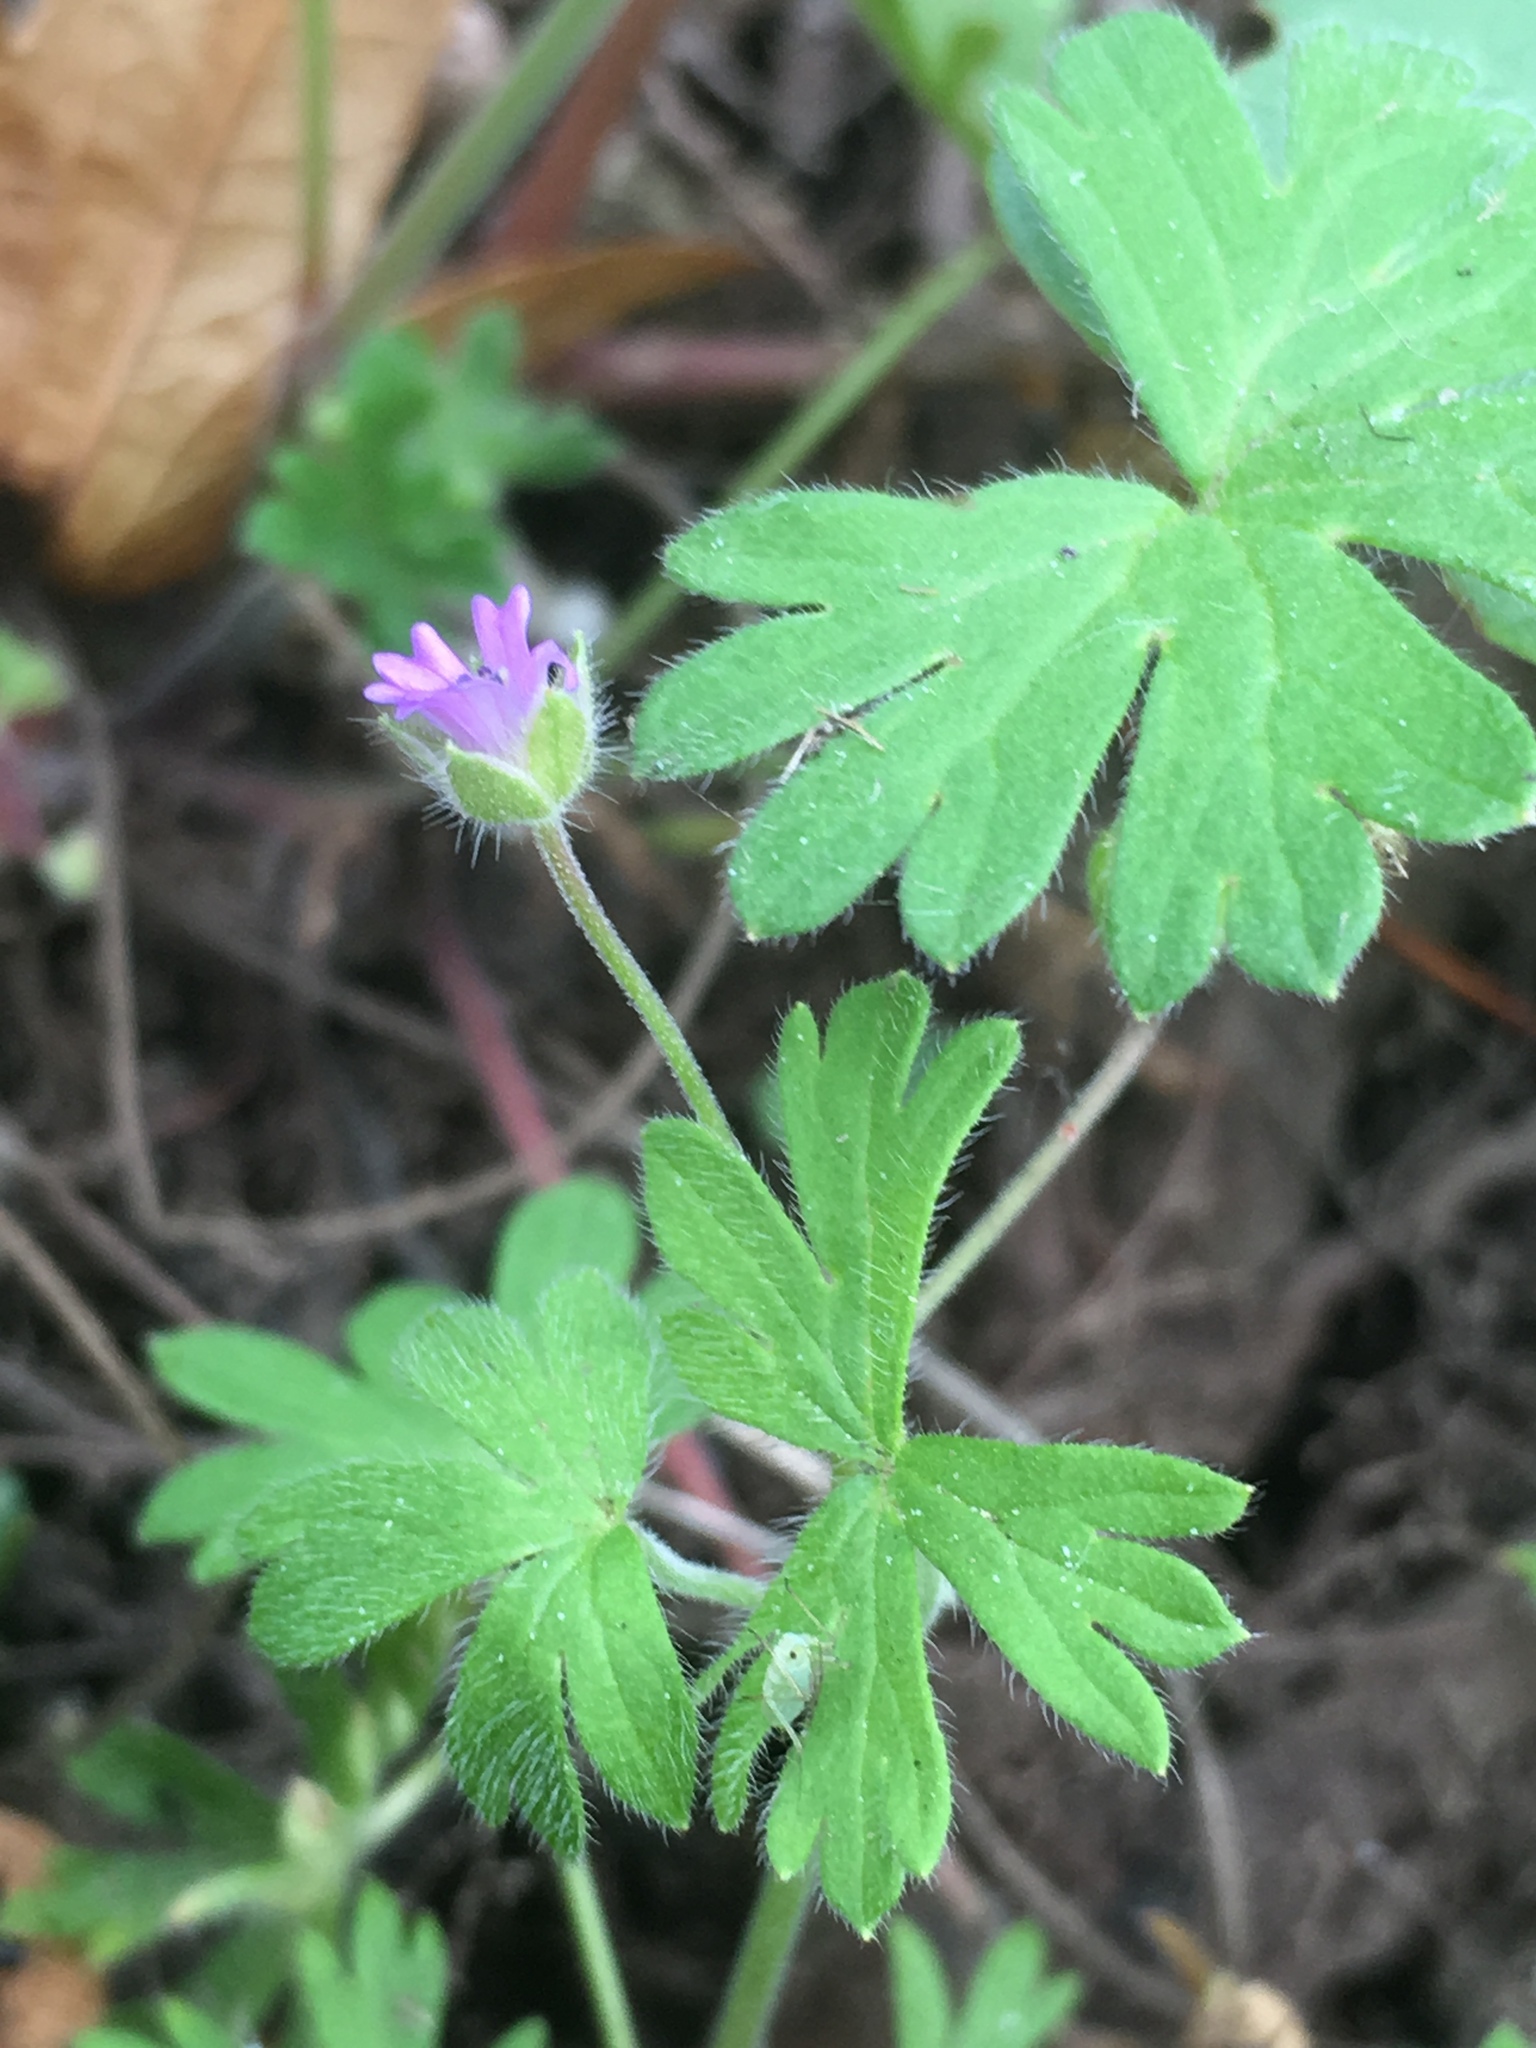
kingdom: Plantae
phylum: Tracheophyta
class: Magnoliopsida
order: Geraniales
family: Geraniaceae
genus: Geranium
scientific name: Geranium molle
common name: Dove's-foot crane's-bill
